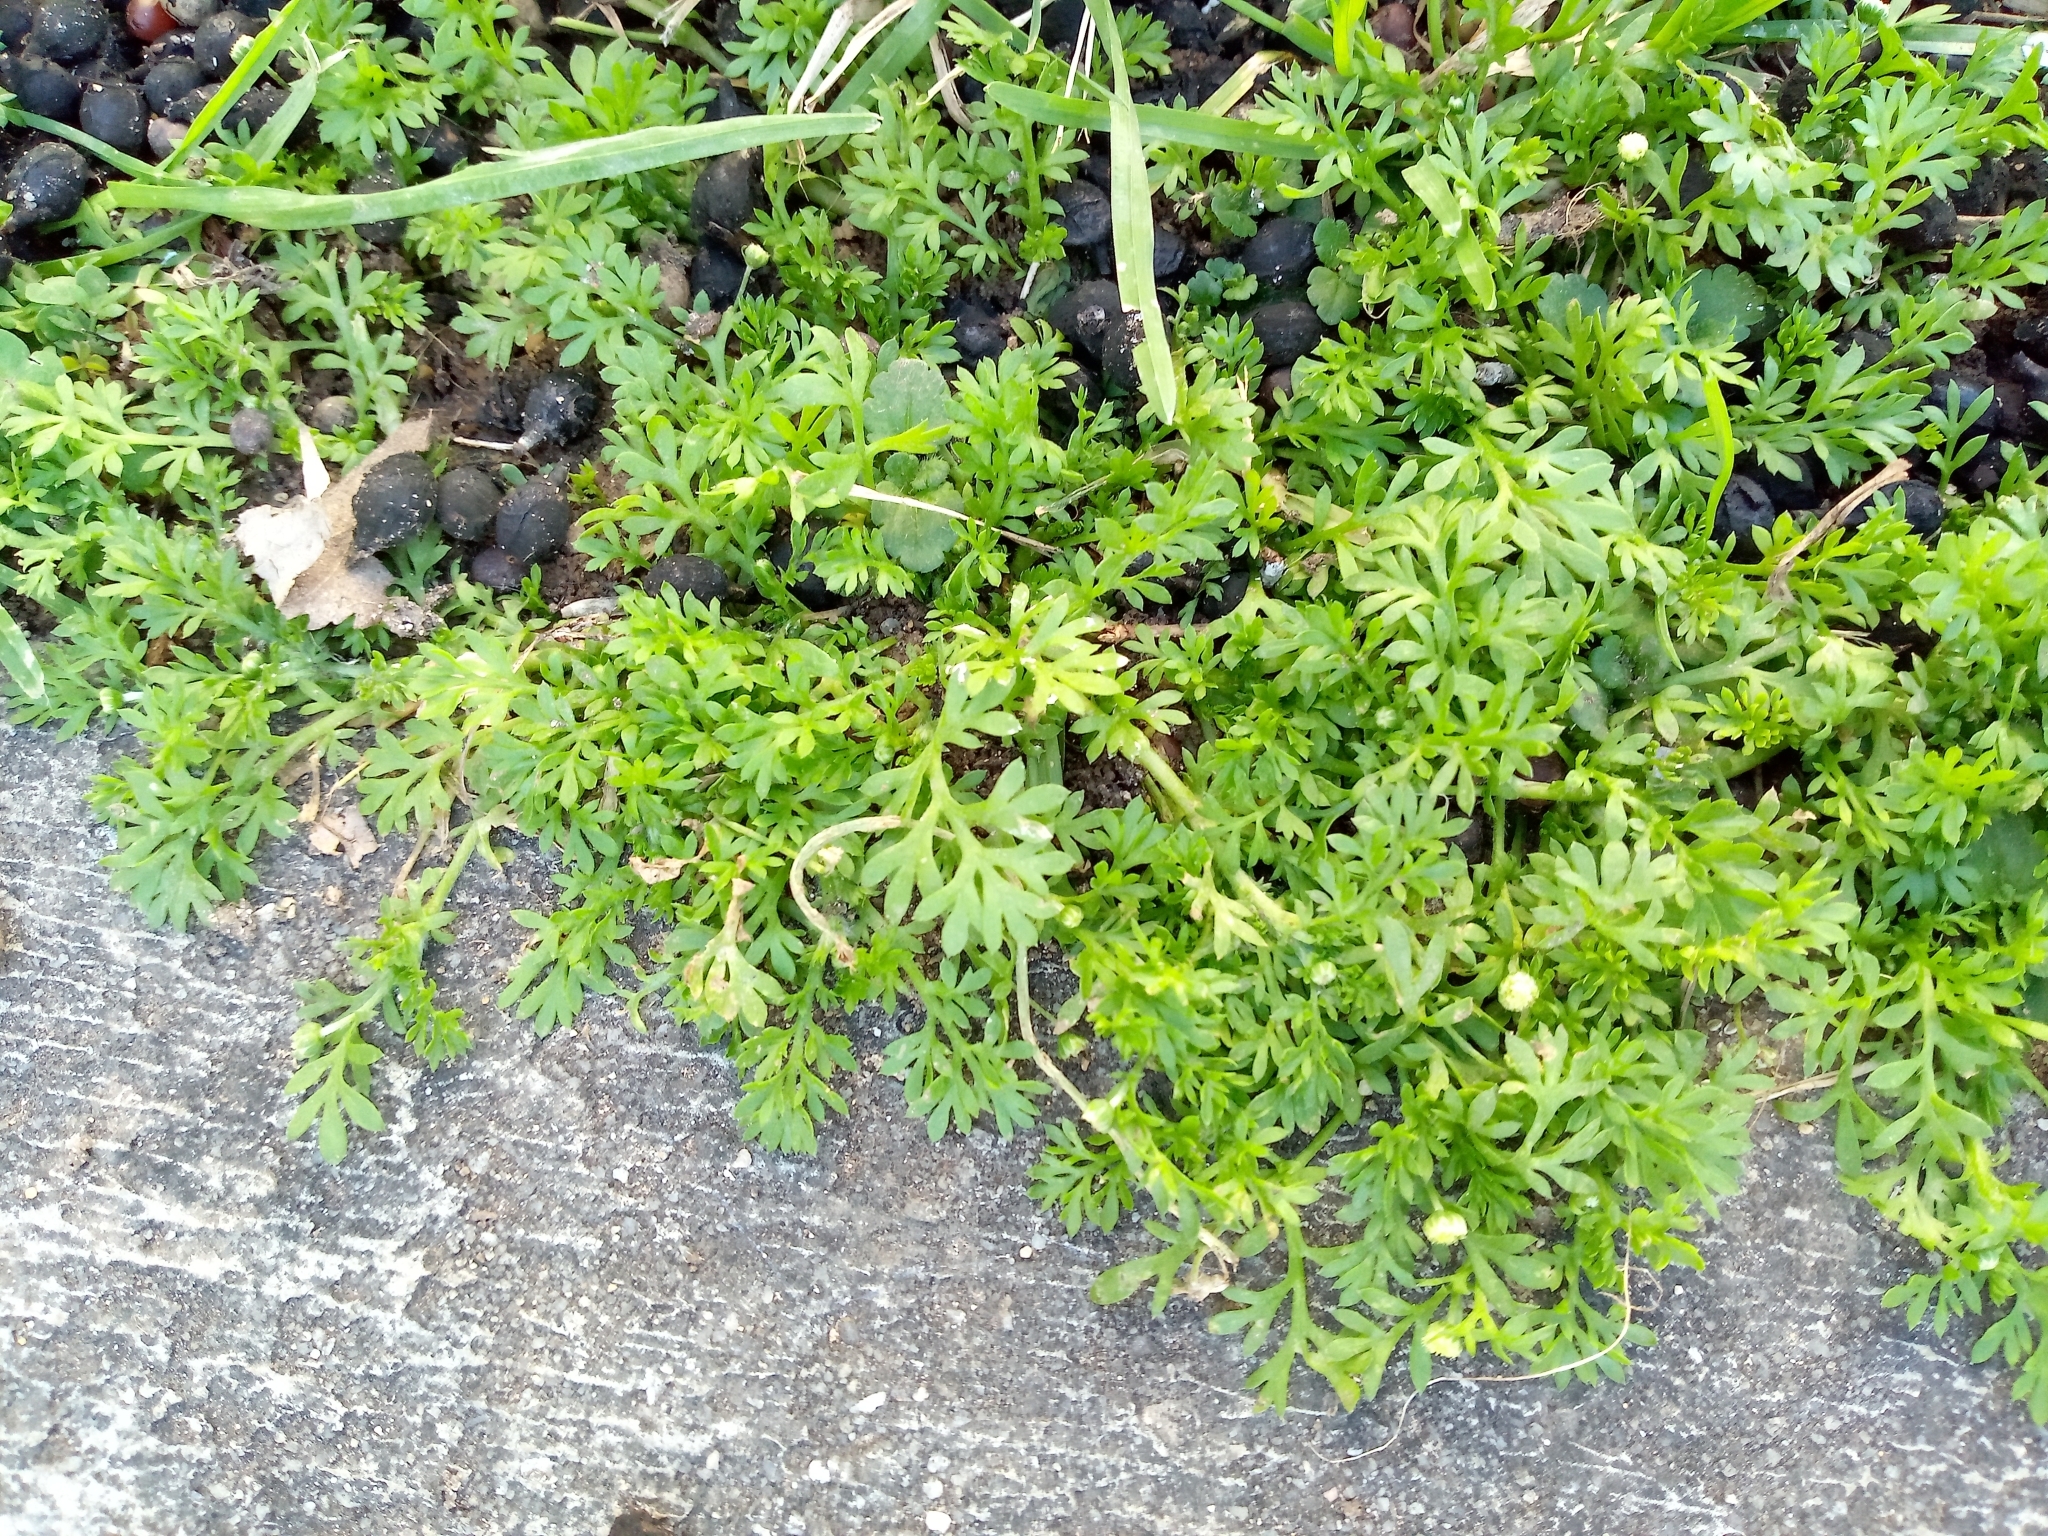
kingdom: Plantae
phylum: Tracheophyta
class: Magnoliopsida
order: Asterales
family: Asteraceae
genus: Cotula
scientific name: Cotula australis
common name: Australian waterbuttons
